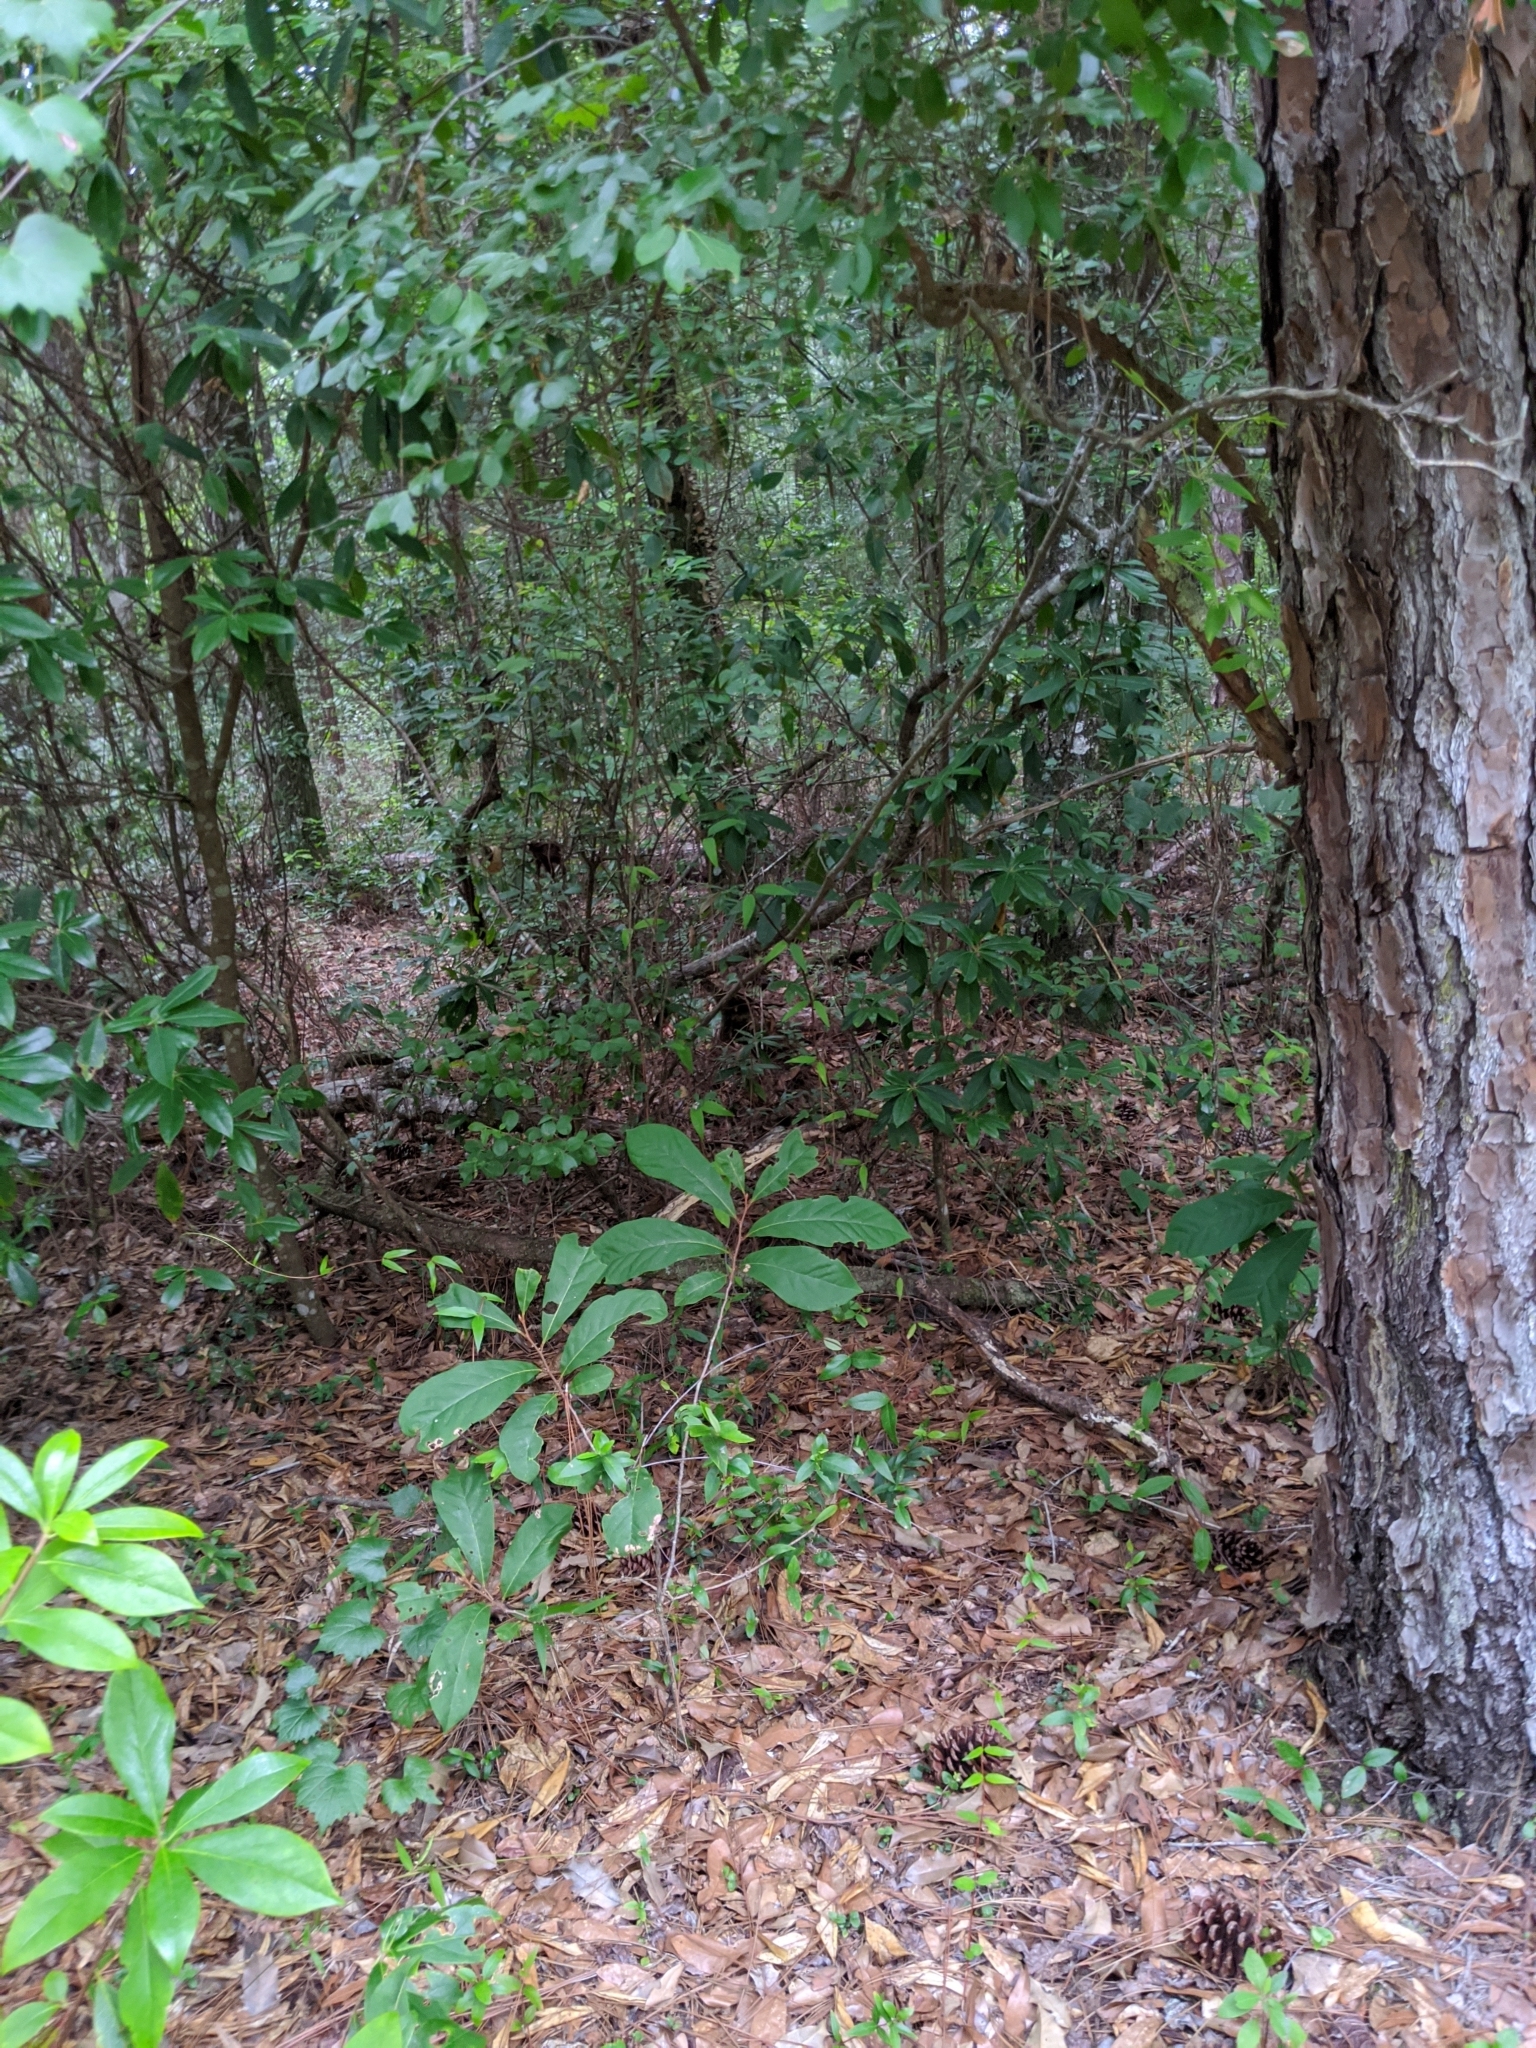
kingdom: Plantae
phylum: Tracheophyta
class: Magnoliopsida
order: Magnoliales
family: Annonaceae
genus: Asimina
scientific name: Asimina parviflora
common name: Dwarf pawpaw
